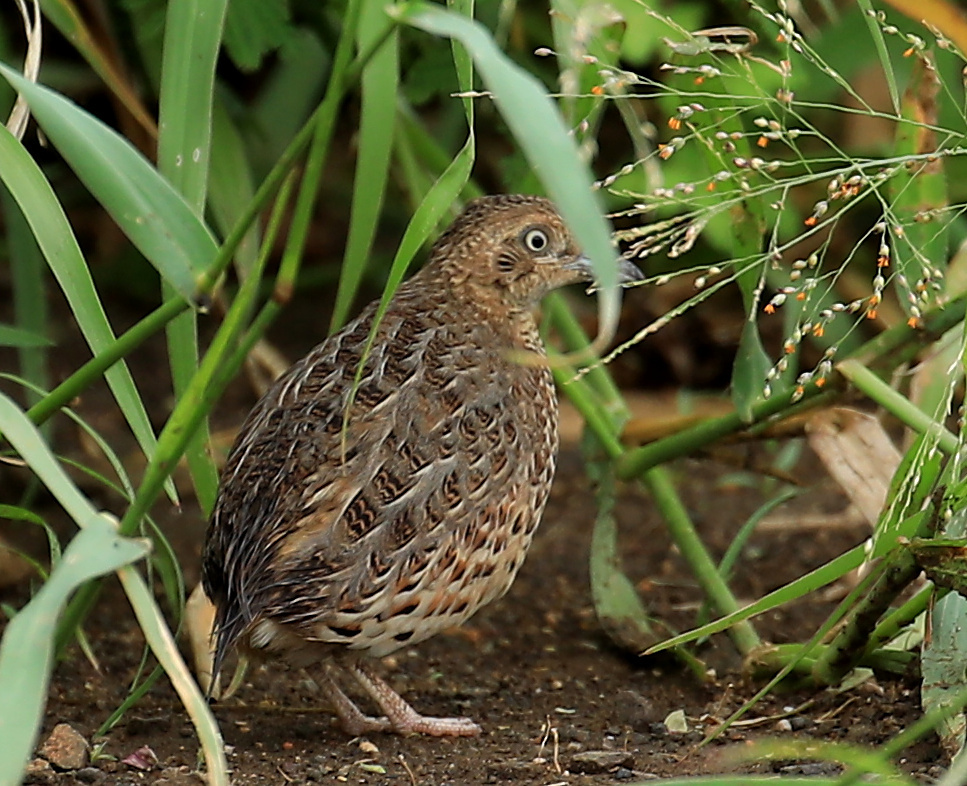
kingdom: Animalia
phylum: Chordata
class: Aves
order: Charadriiformes
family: Turnicidae
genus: Turnix
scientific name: Turnix sylvaticus
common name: Common buttonquail
